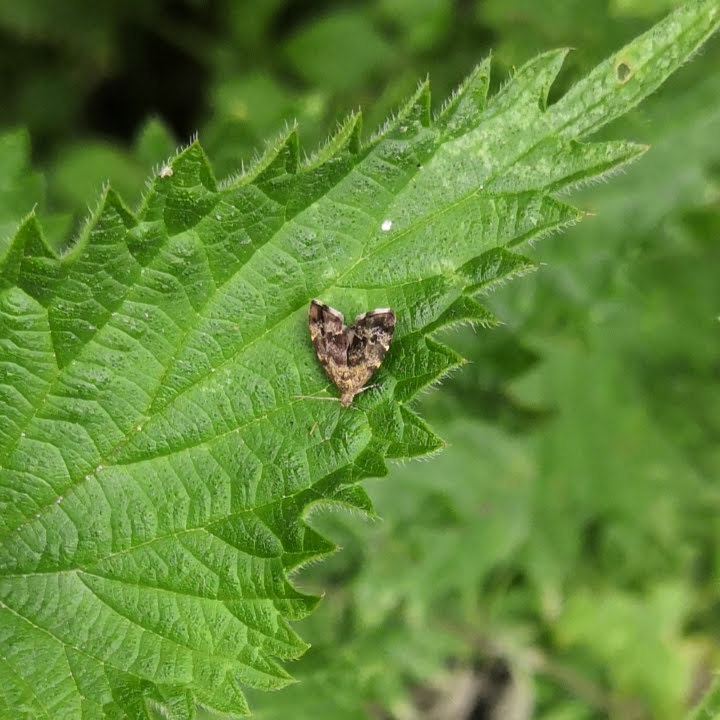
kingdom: Animalia
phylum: Arthropoda
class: Insecta
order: Lepidoptera
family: Choreutidae
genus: Anthophila
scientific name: Anthophila fabriciana
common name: Nettle-tap
